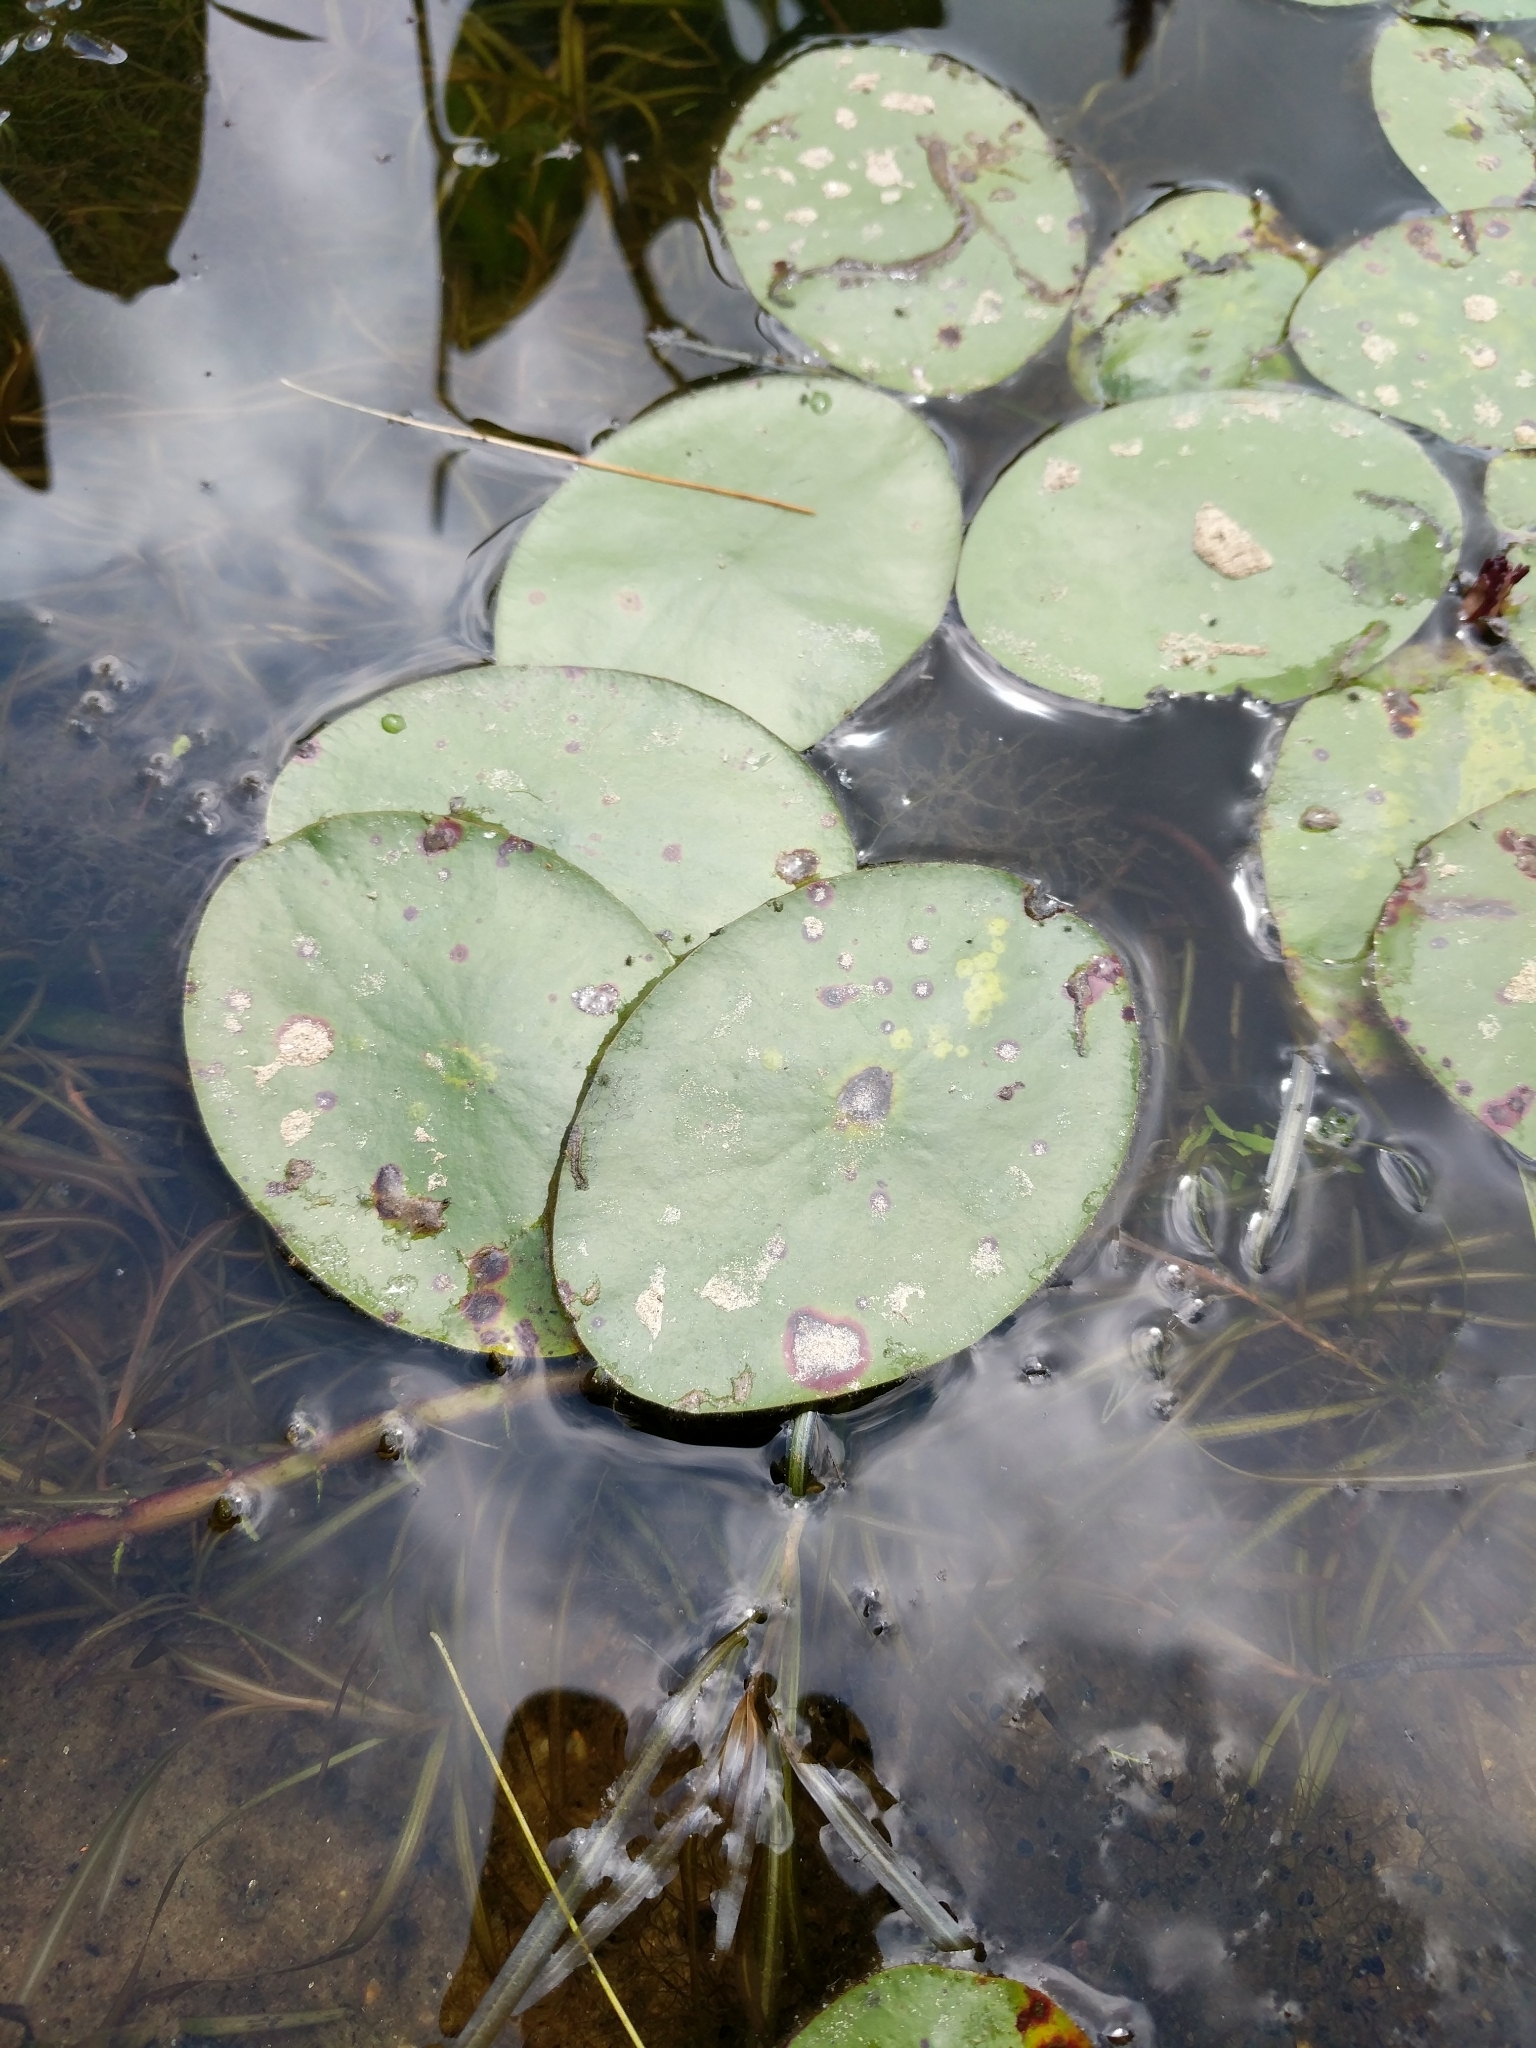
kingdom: Plantae
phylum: Tracheophyta
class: Magnoliopsida
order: Nymphaeales
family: Cabombaceae
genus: Brasenia
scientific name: Brasenia schreberi
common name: Water-shield
